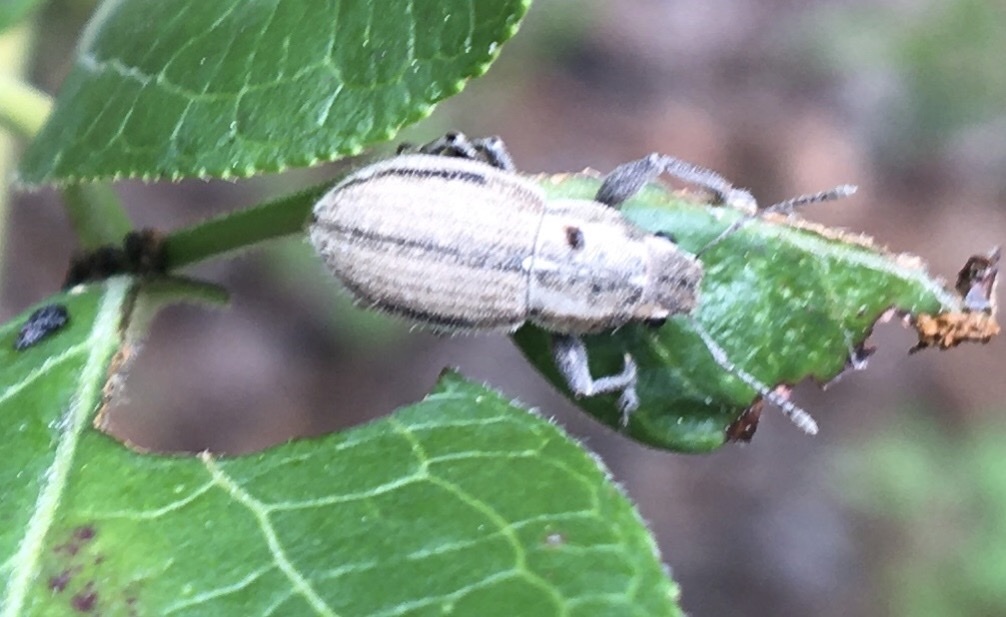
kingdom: Animalia
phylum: Arthropoda
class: Insecta
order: Coleoptera
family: Curculionidae
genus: Naupactus
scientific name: Naupactus peregrinus
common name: Whitefringed beetle
